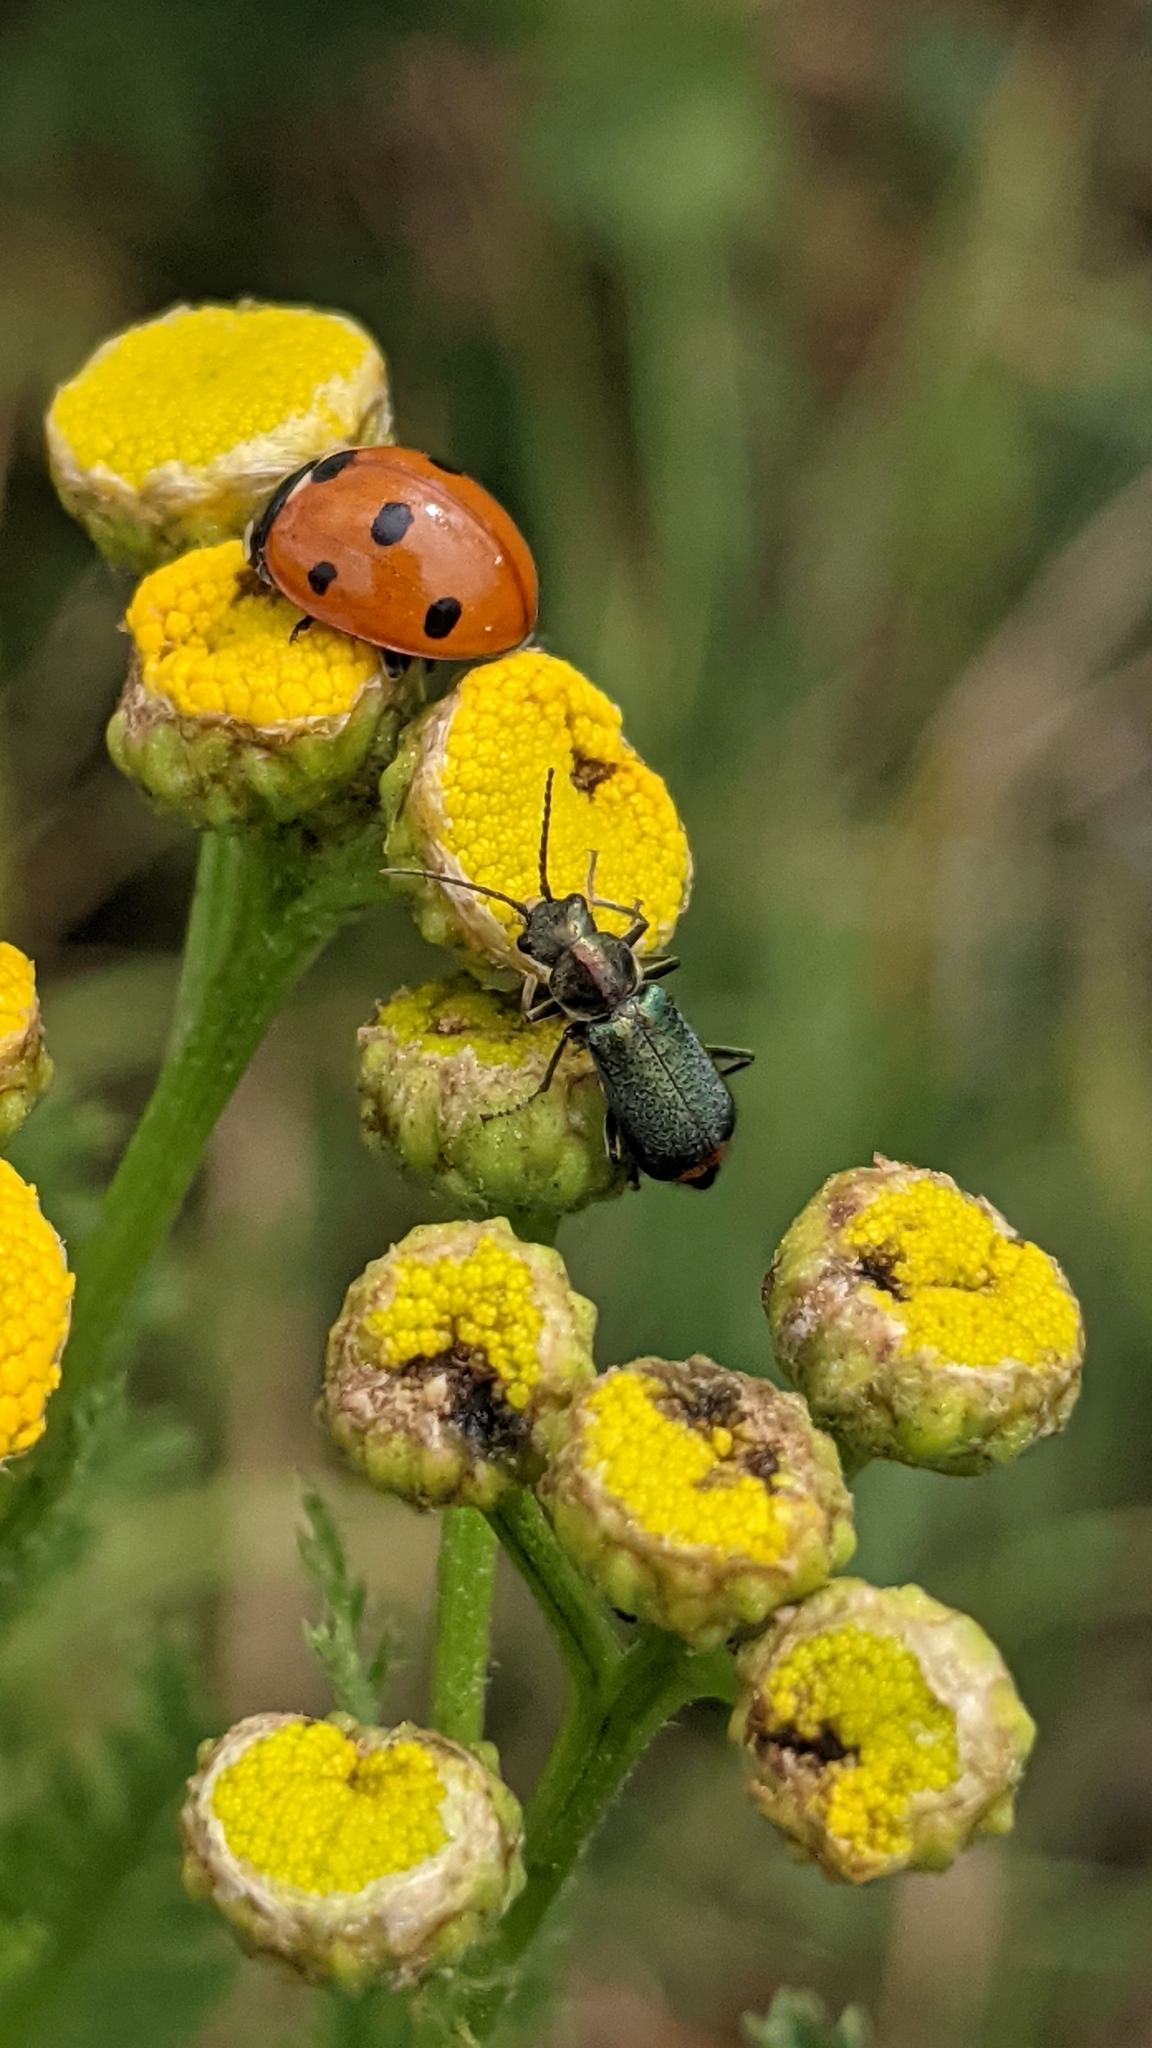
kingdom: Animalia
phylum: Arthropoda
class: Insecta
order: Coleoptera
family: Melyridae
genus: Malachius
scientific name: Malachius bipustulatus
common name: Malachite beetle
